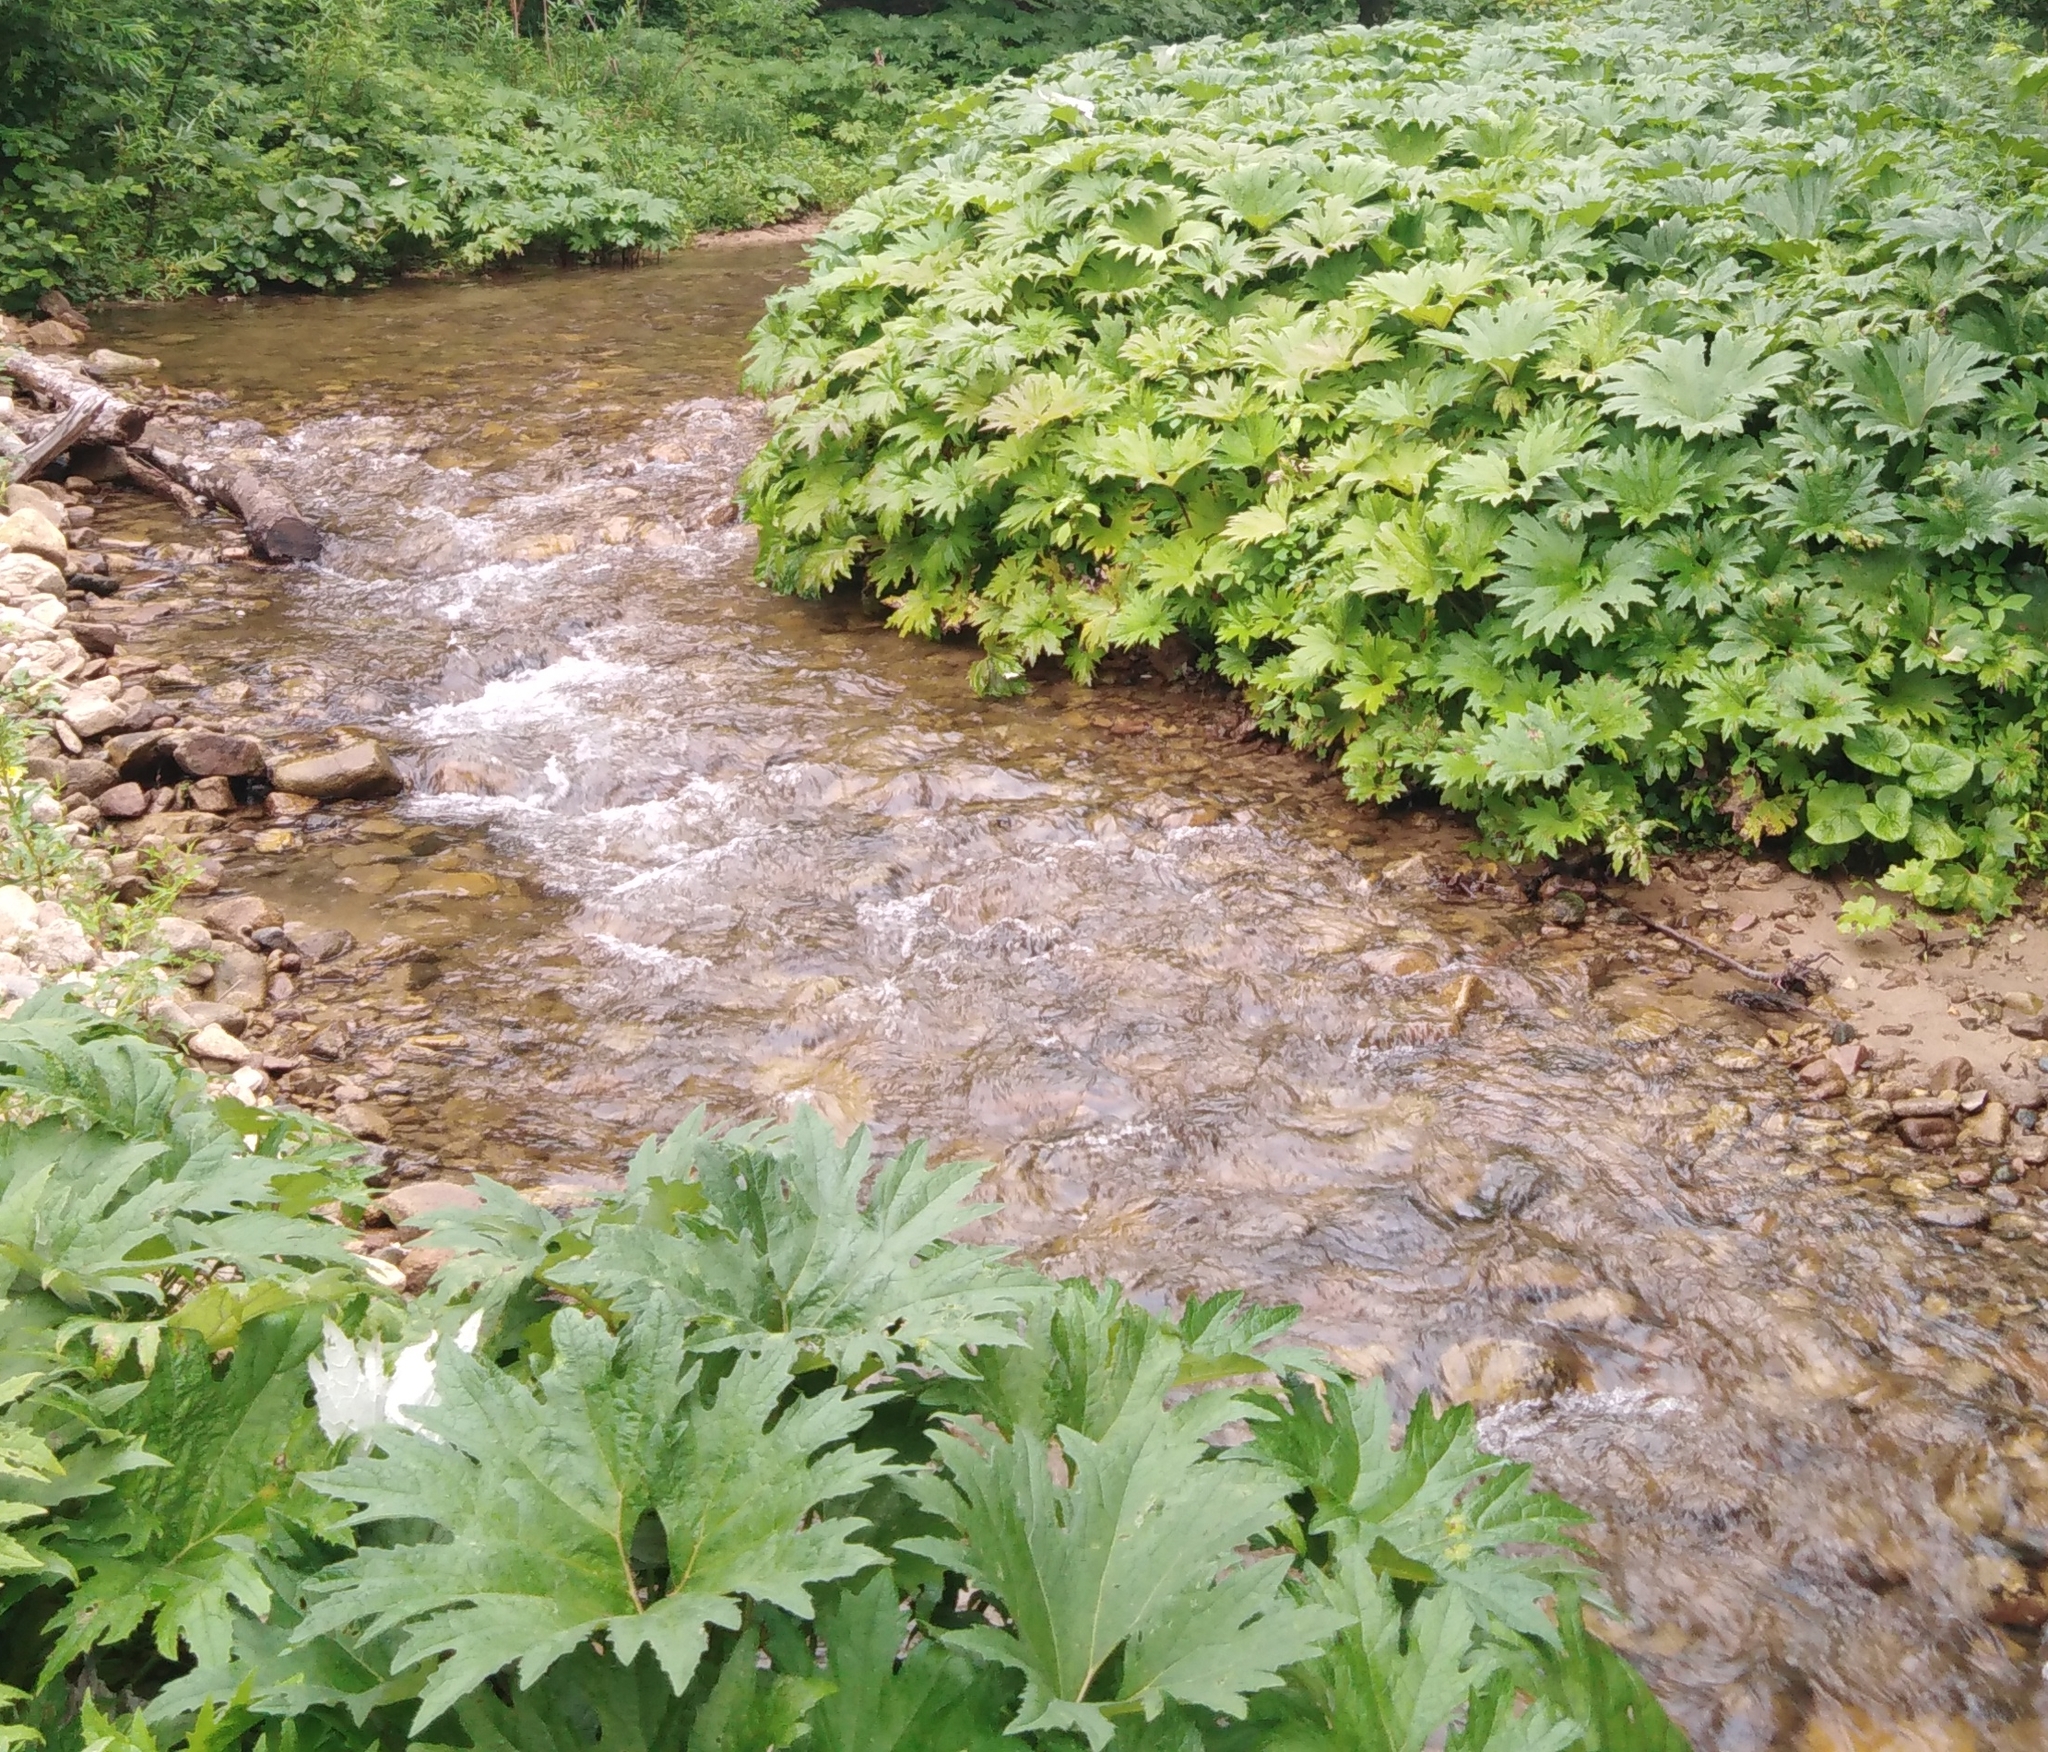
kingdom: Plantae
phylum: Tracheophyta
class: Magnoliopsida
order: Asterales
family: Asteraceae
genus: Petasites
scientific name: Petasites tatewakianus
